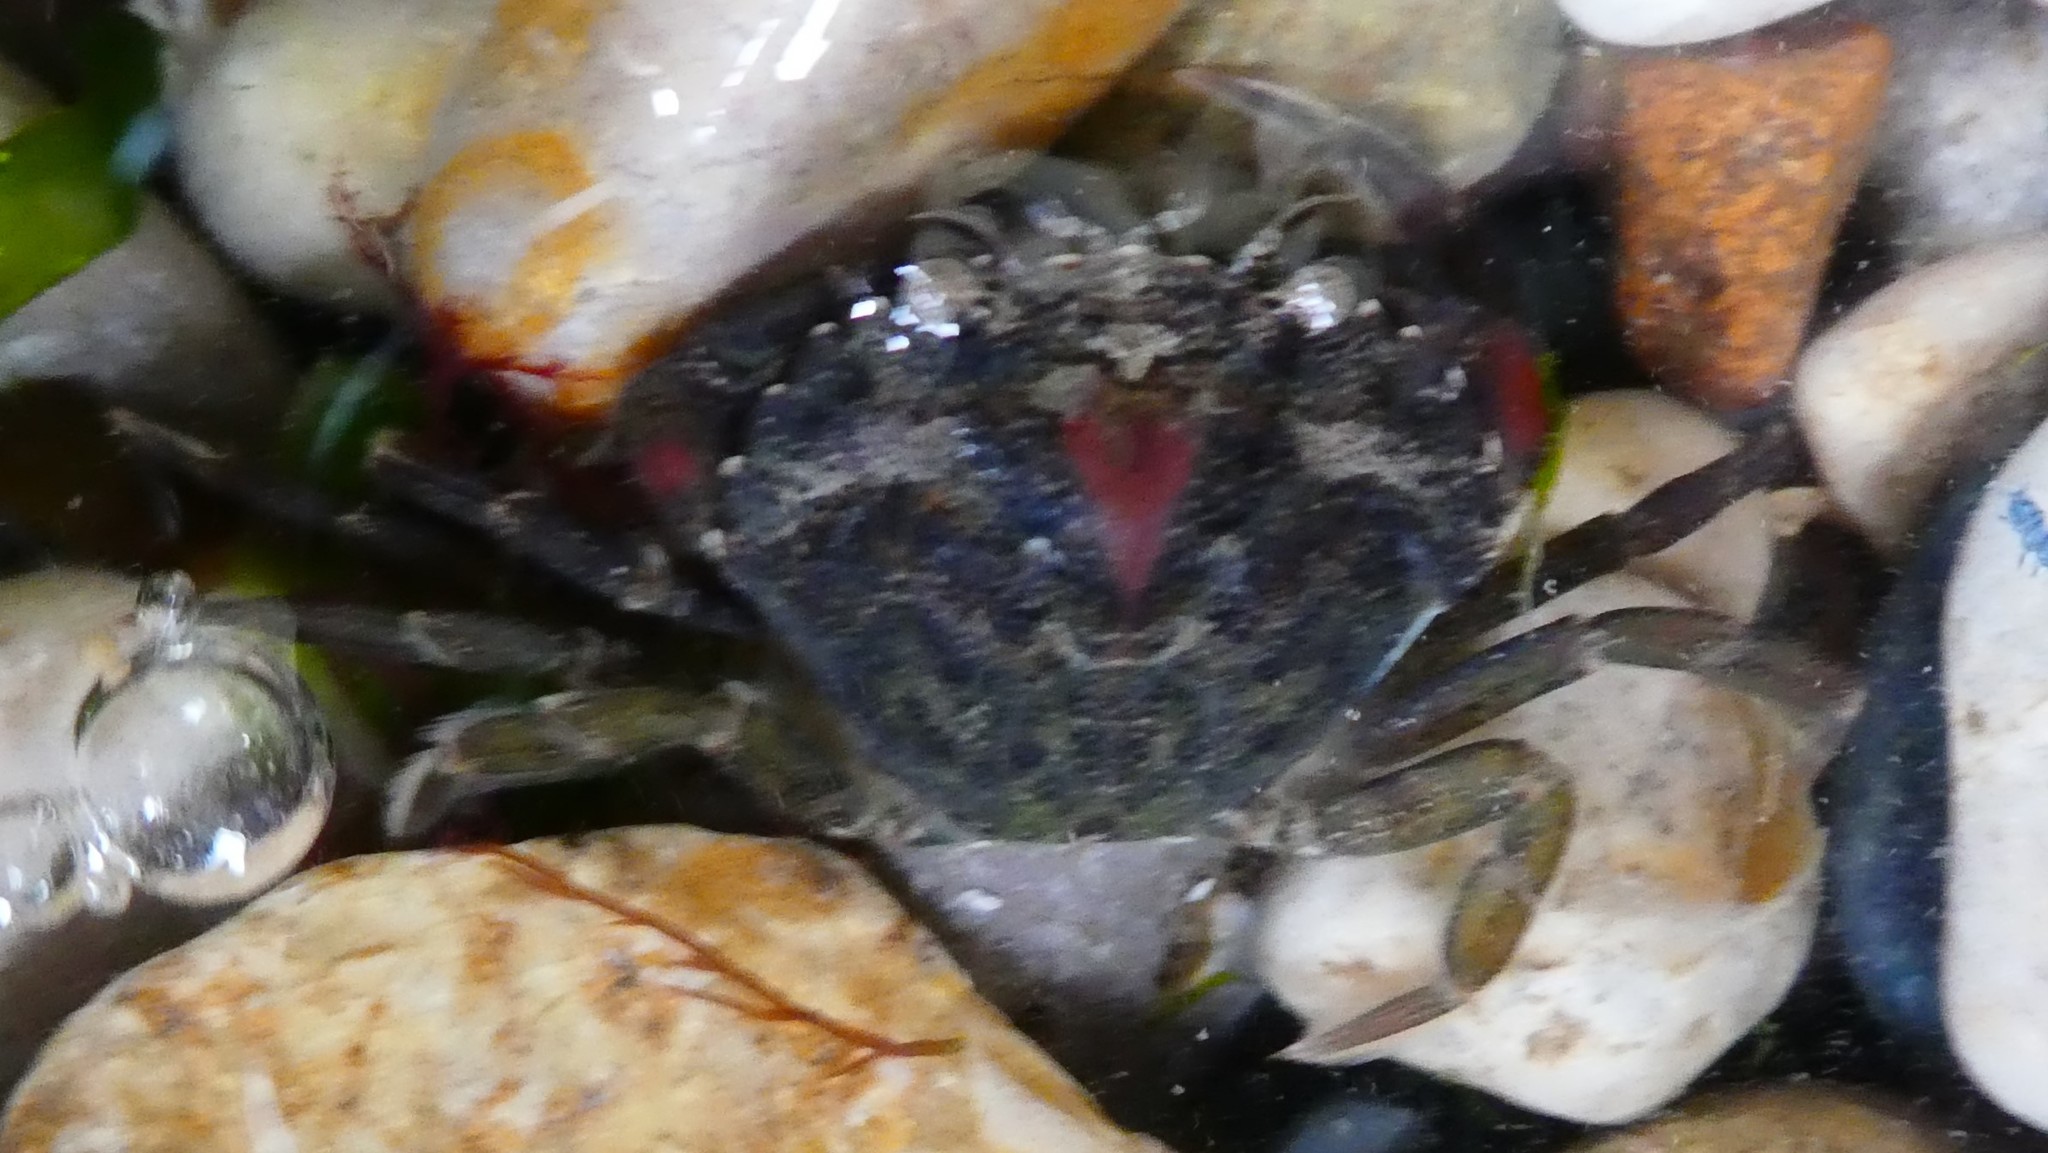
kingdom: Animalia
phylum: Arthropoda
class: Malacostraca
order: Decapoda
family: Carcinidae
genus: Carcinus
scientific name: Carcinus maenas
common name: European green crab
